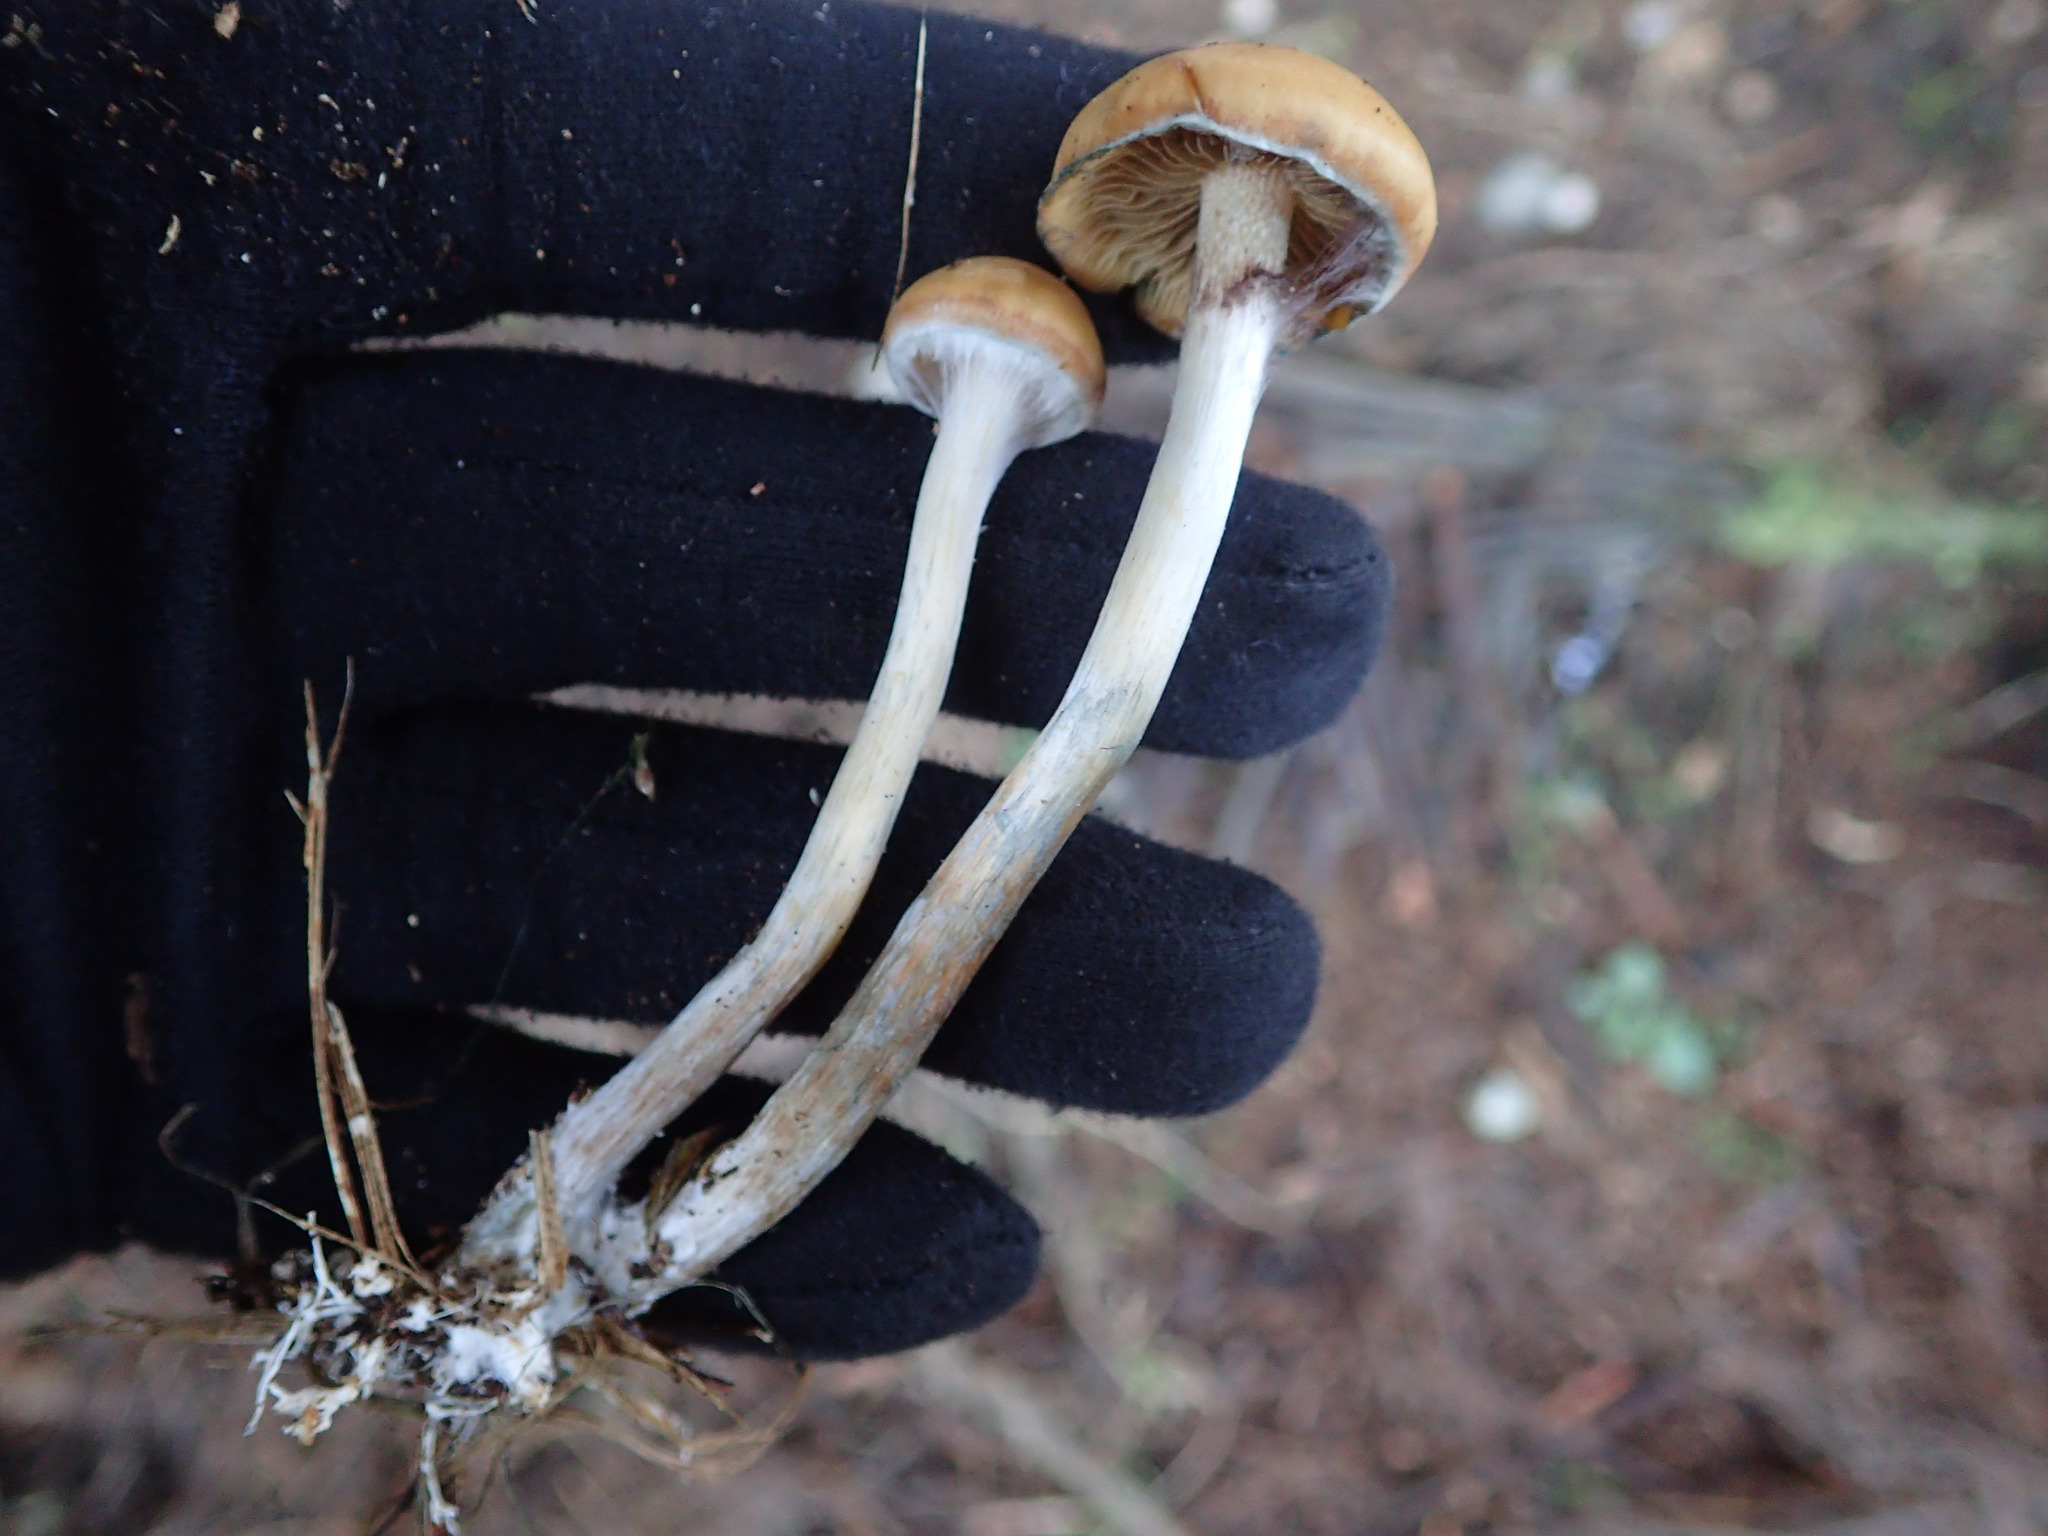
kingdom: Fungi
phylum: Basidiomycota
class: Agaricomycetes
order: Agaricales
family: Hymenogastraceae
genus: Psilocybe
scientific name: Psilocybe subaeruginosa
